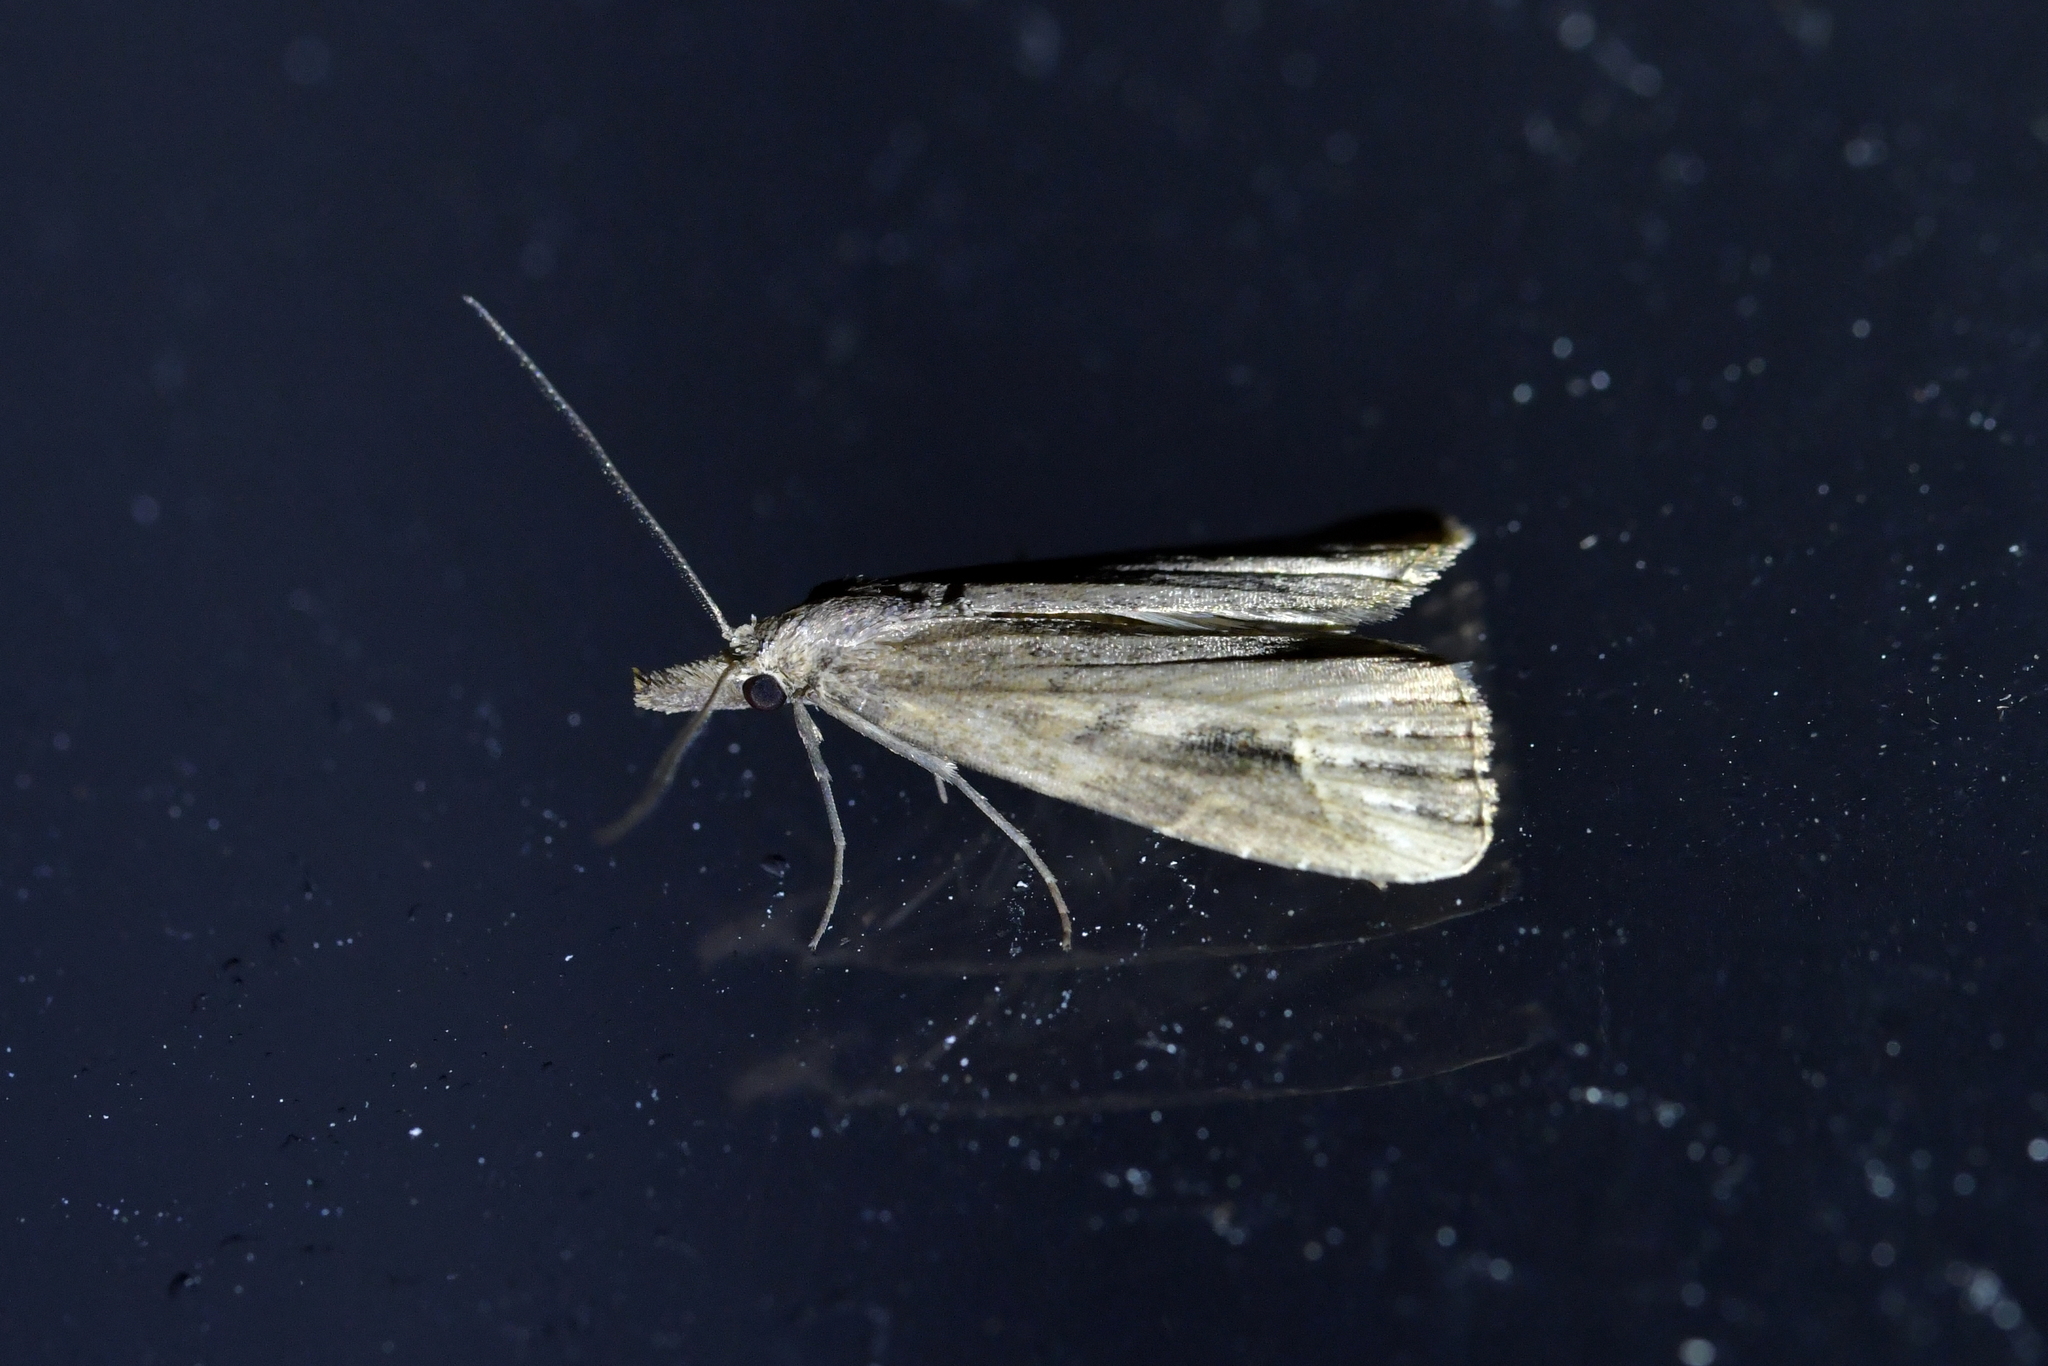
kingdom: Animalia
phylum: Arthropoda
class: Insecta
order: Lepidoptera
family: Erebidae
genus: Schrankia
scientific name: Schrankia costaestrigalis
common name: Pinion-streaked snout
